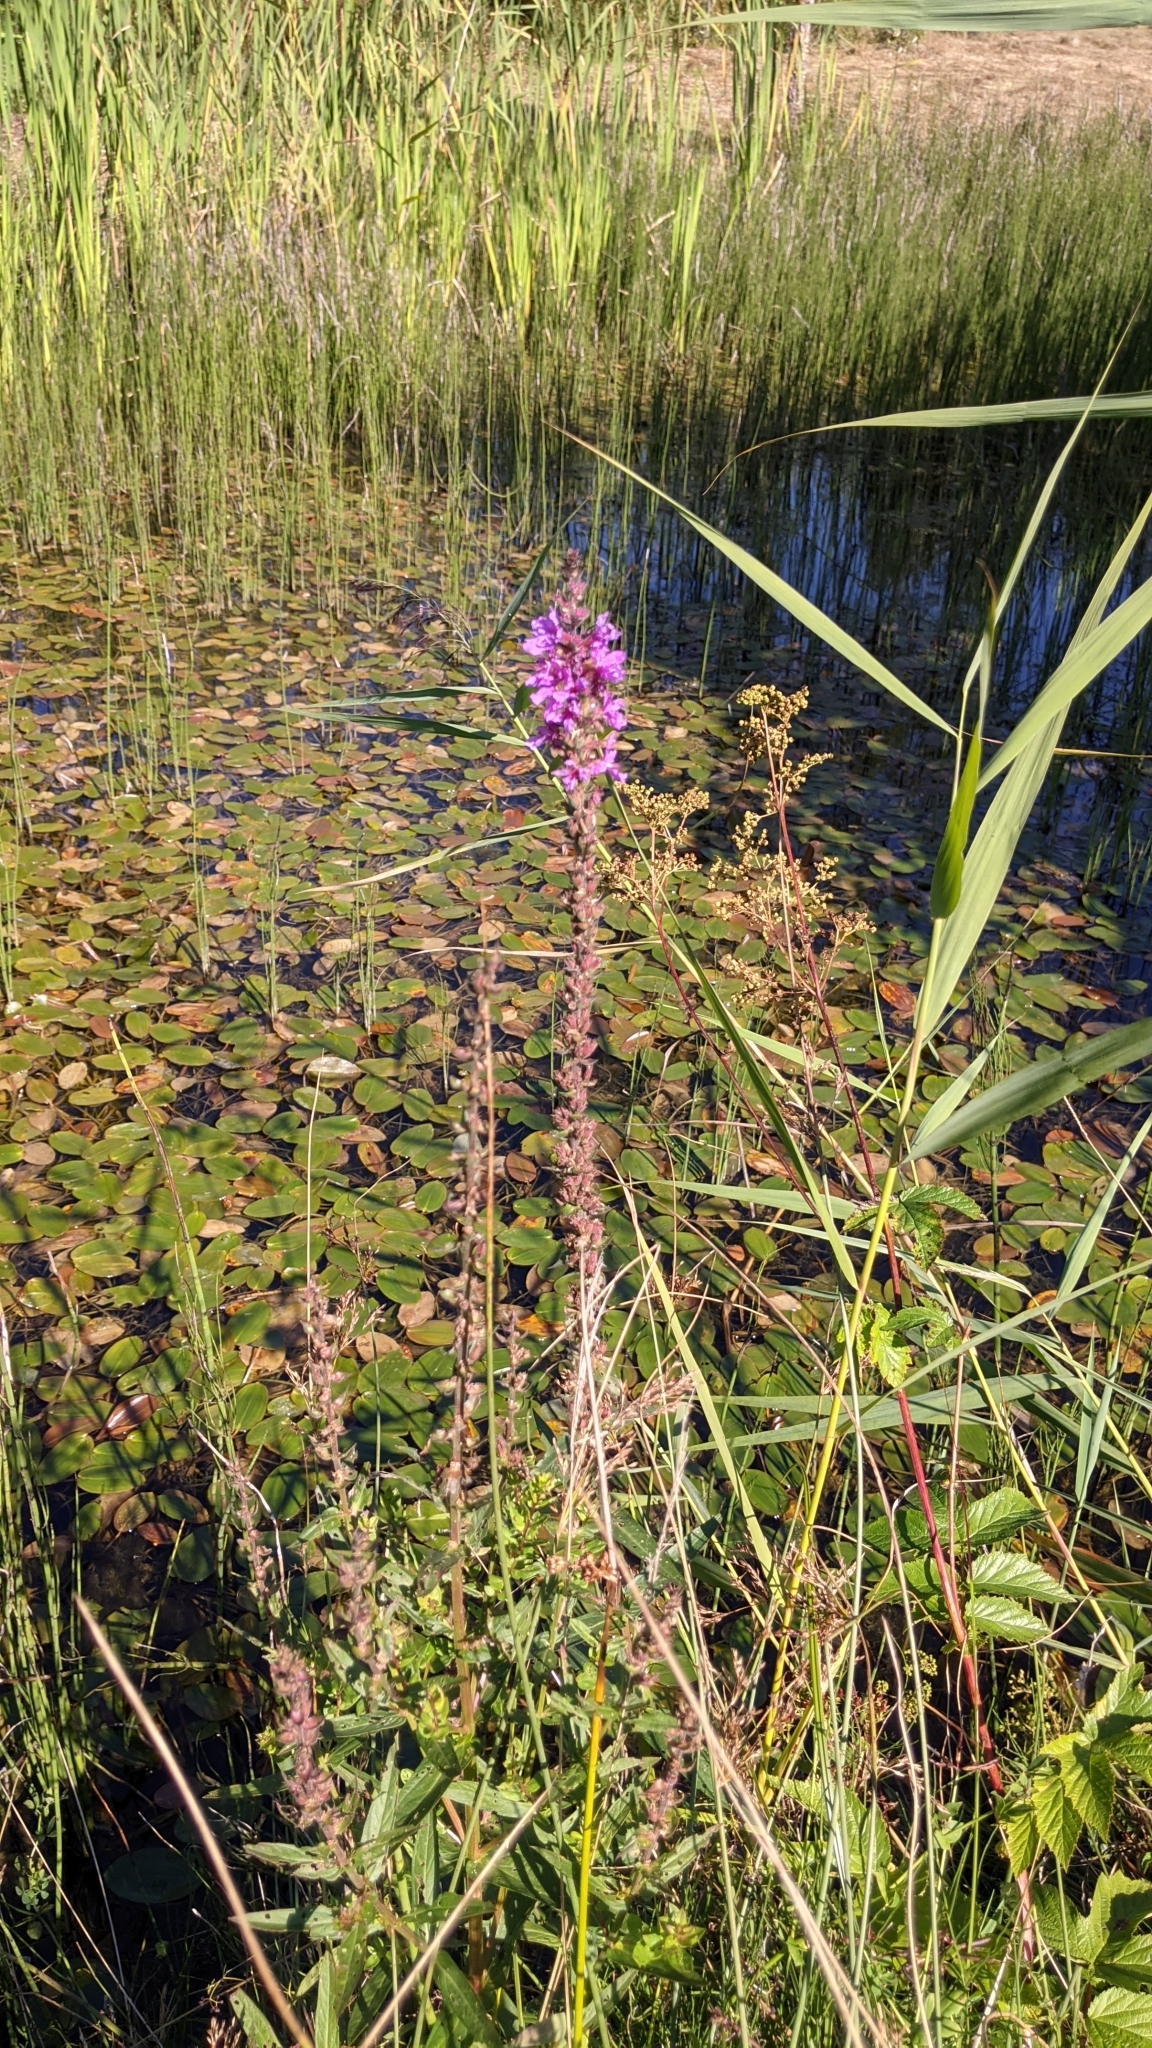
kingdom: Plantae
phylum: Tracheophyta
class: Magnoliopsida
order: Myrtales
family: Lythraceae
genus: Lythrum
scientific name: Lythrum salicaria
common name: Purple loosestrife
